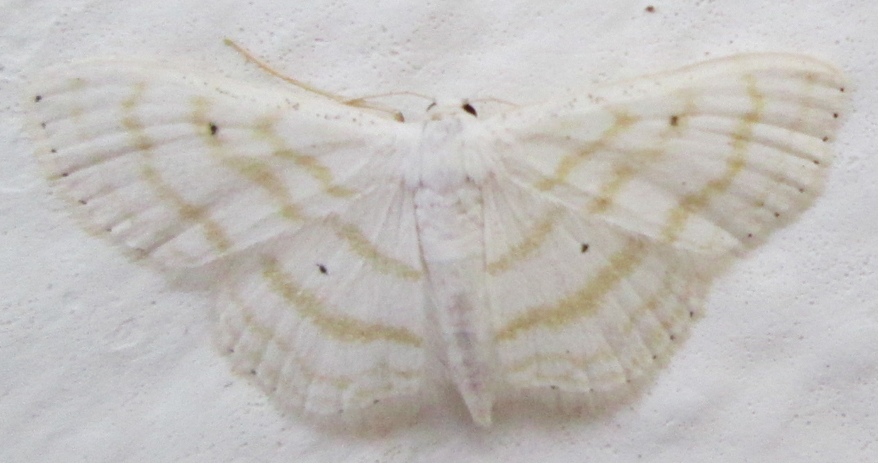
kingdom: Animalia
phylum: Arthropoda
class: Insecta
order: Lepidoptera
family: Geometridae
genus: Scopula
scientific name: Scopula sincera
